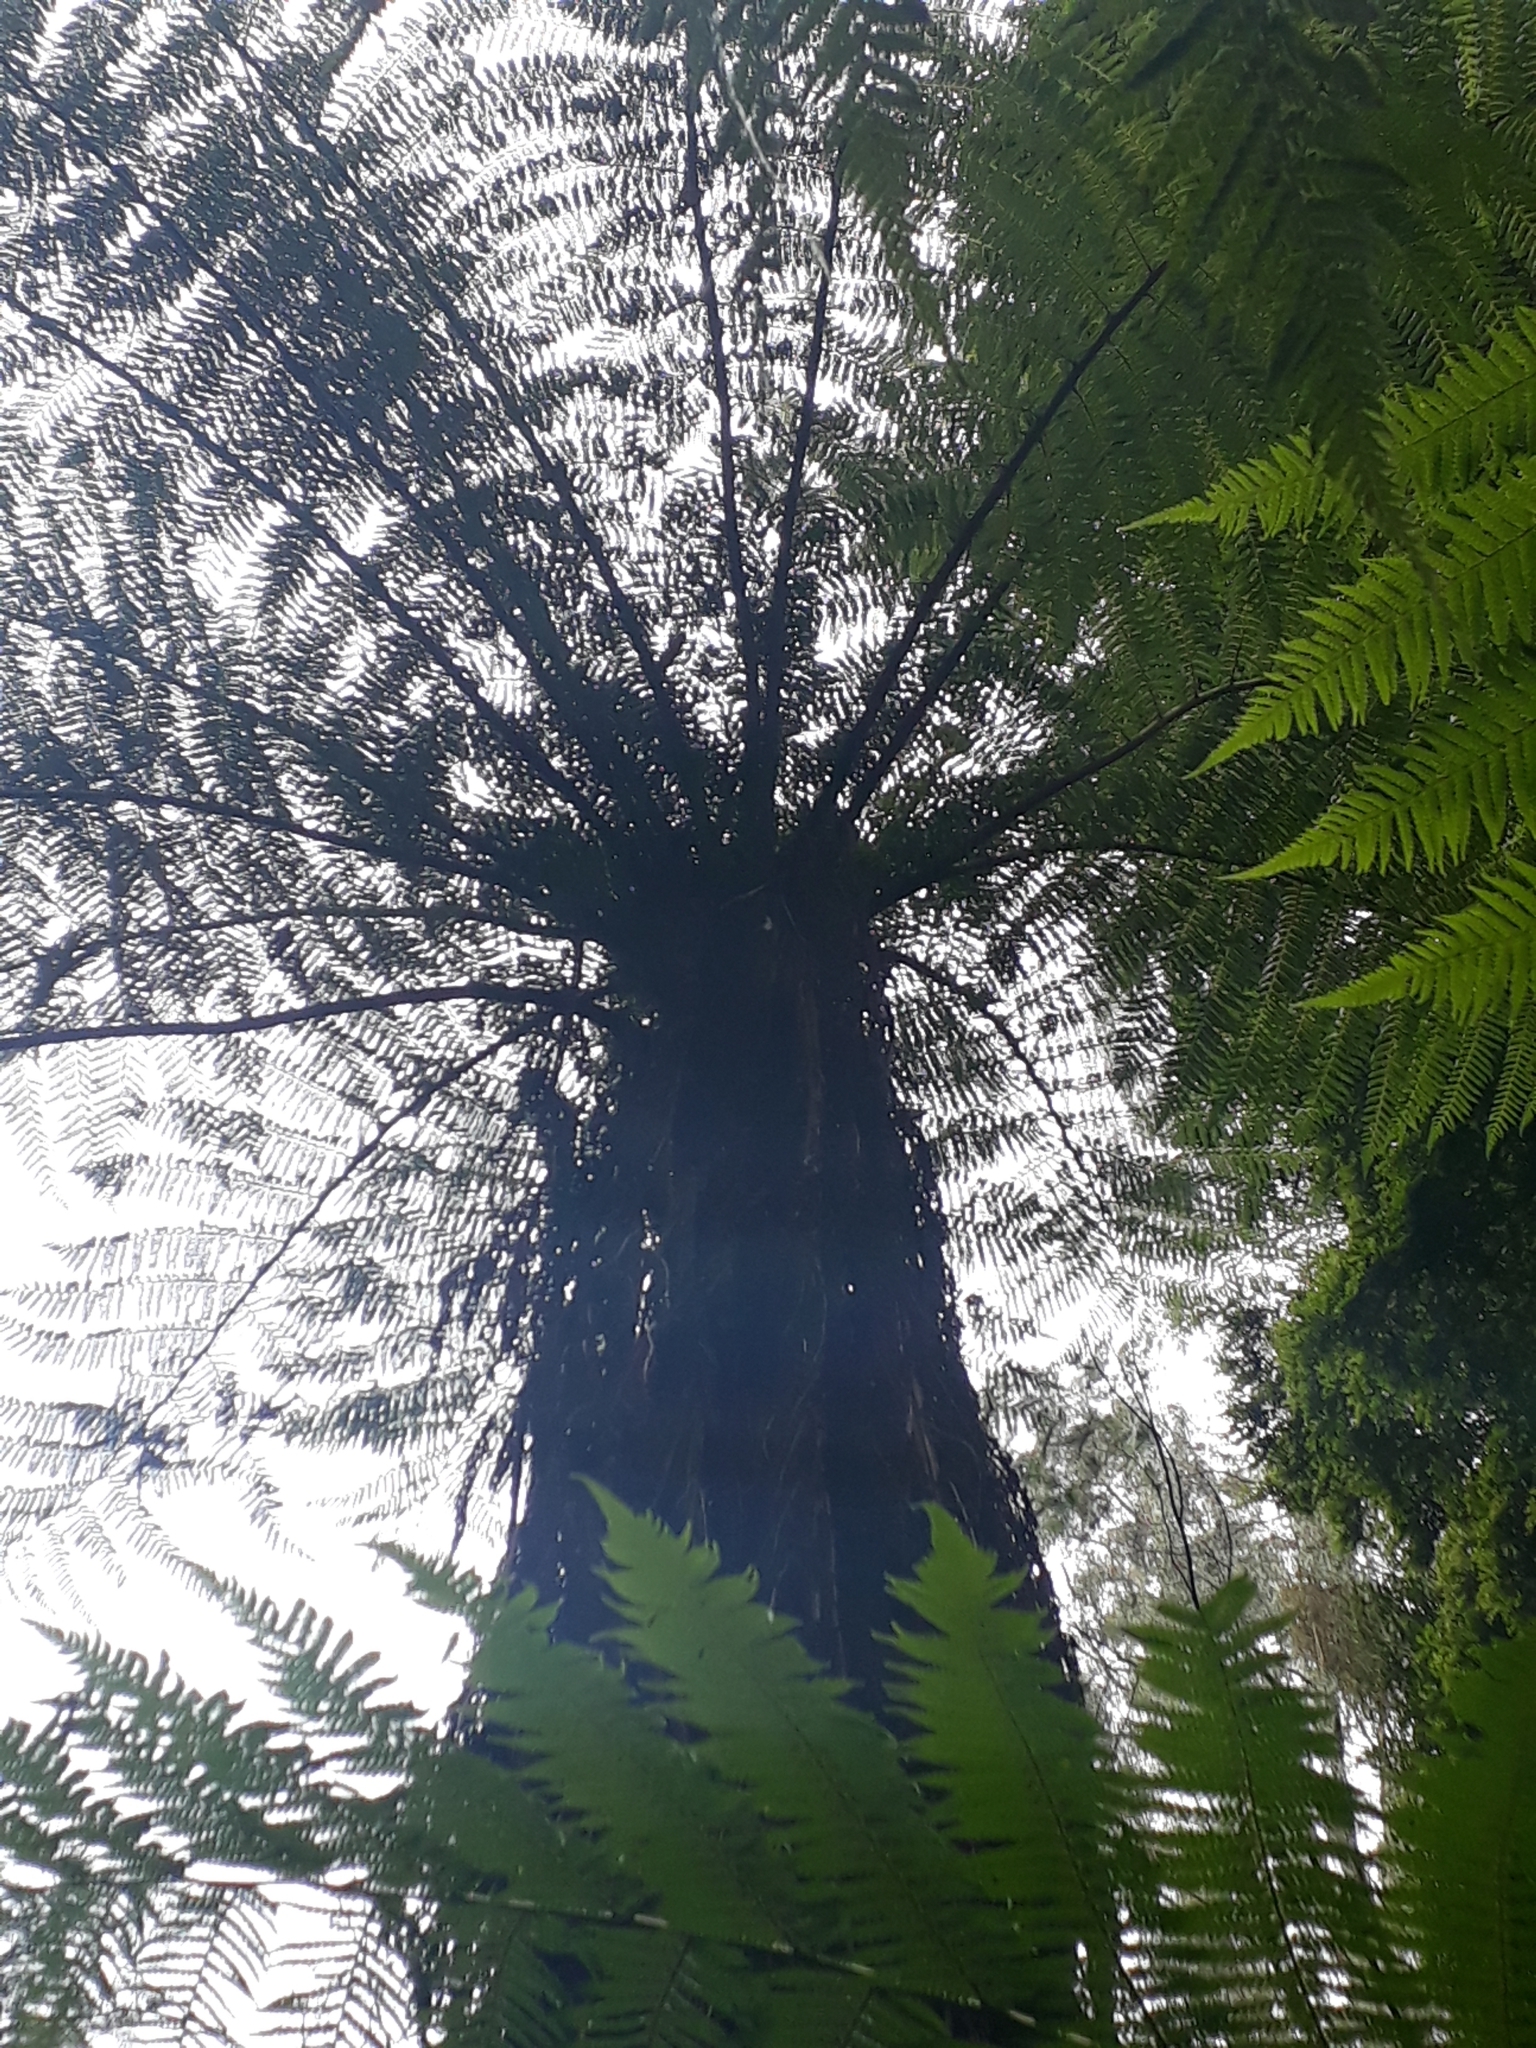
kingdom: Plantae
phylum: Tracheophyta
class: Polypodiopsida
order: Cyatheales
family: Cyatheaceae
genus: Alsophila
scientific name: Alsophila marcescens
